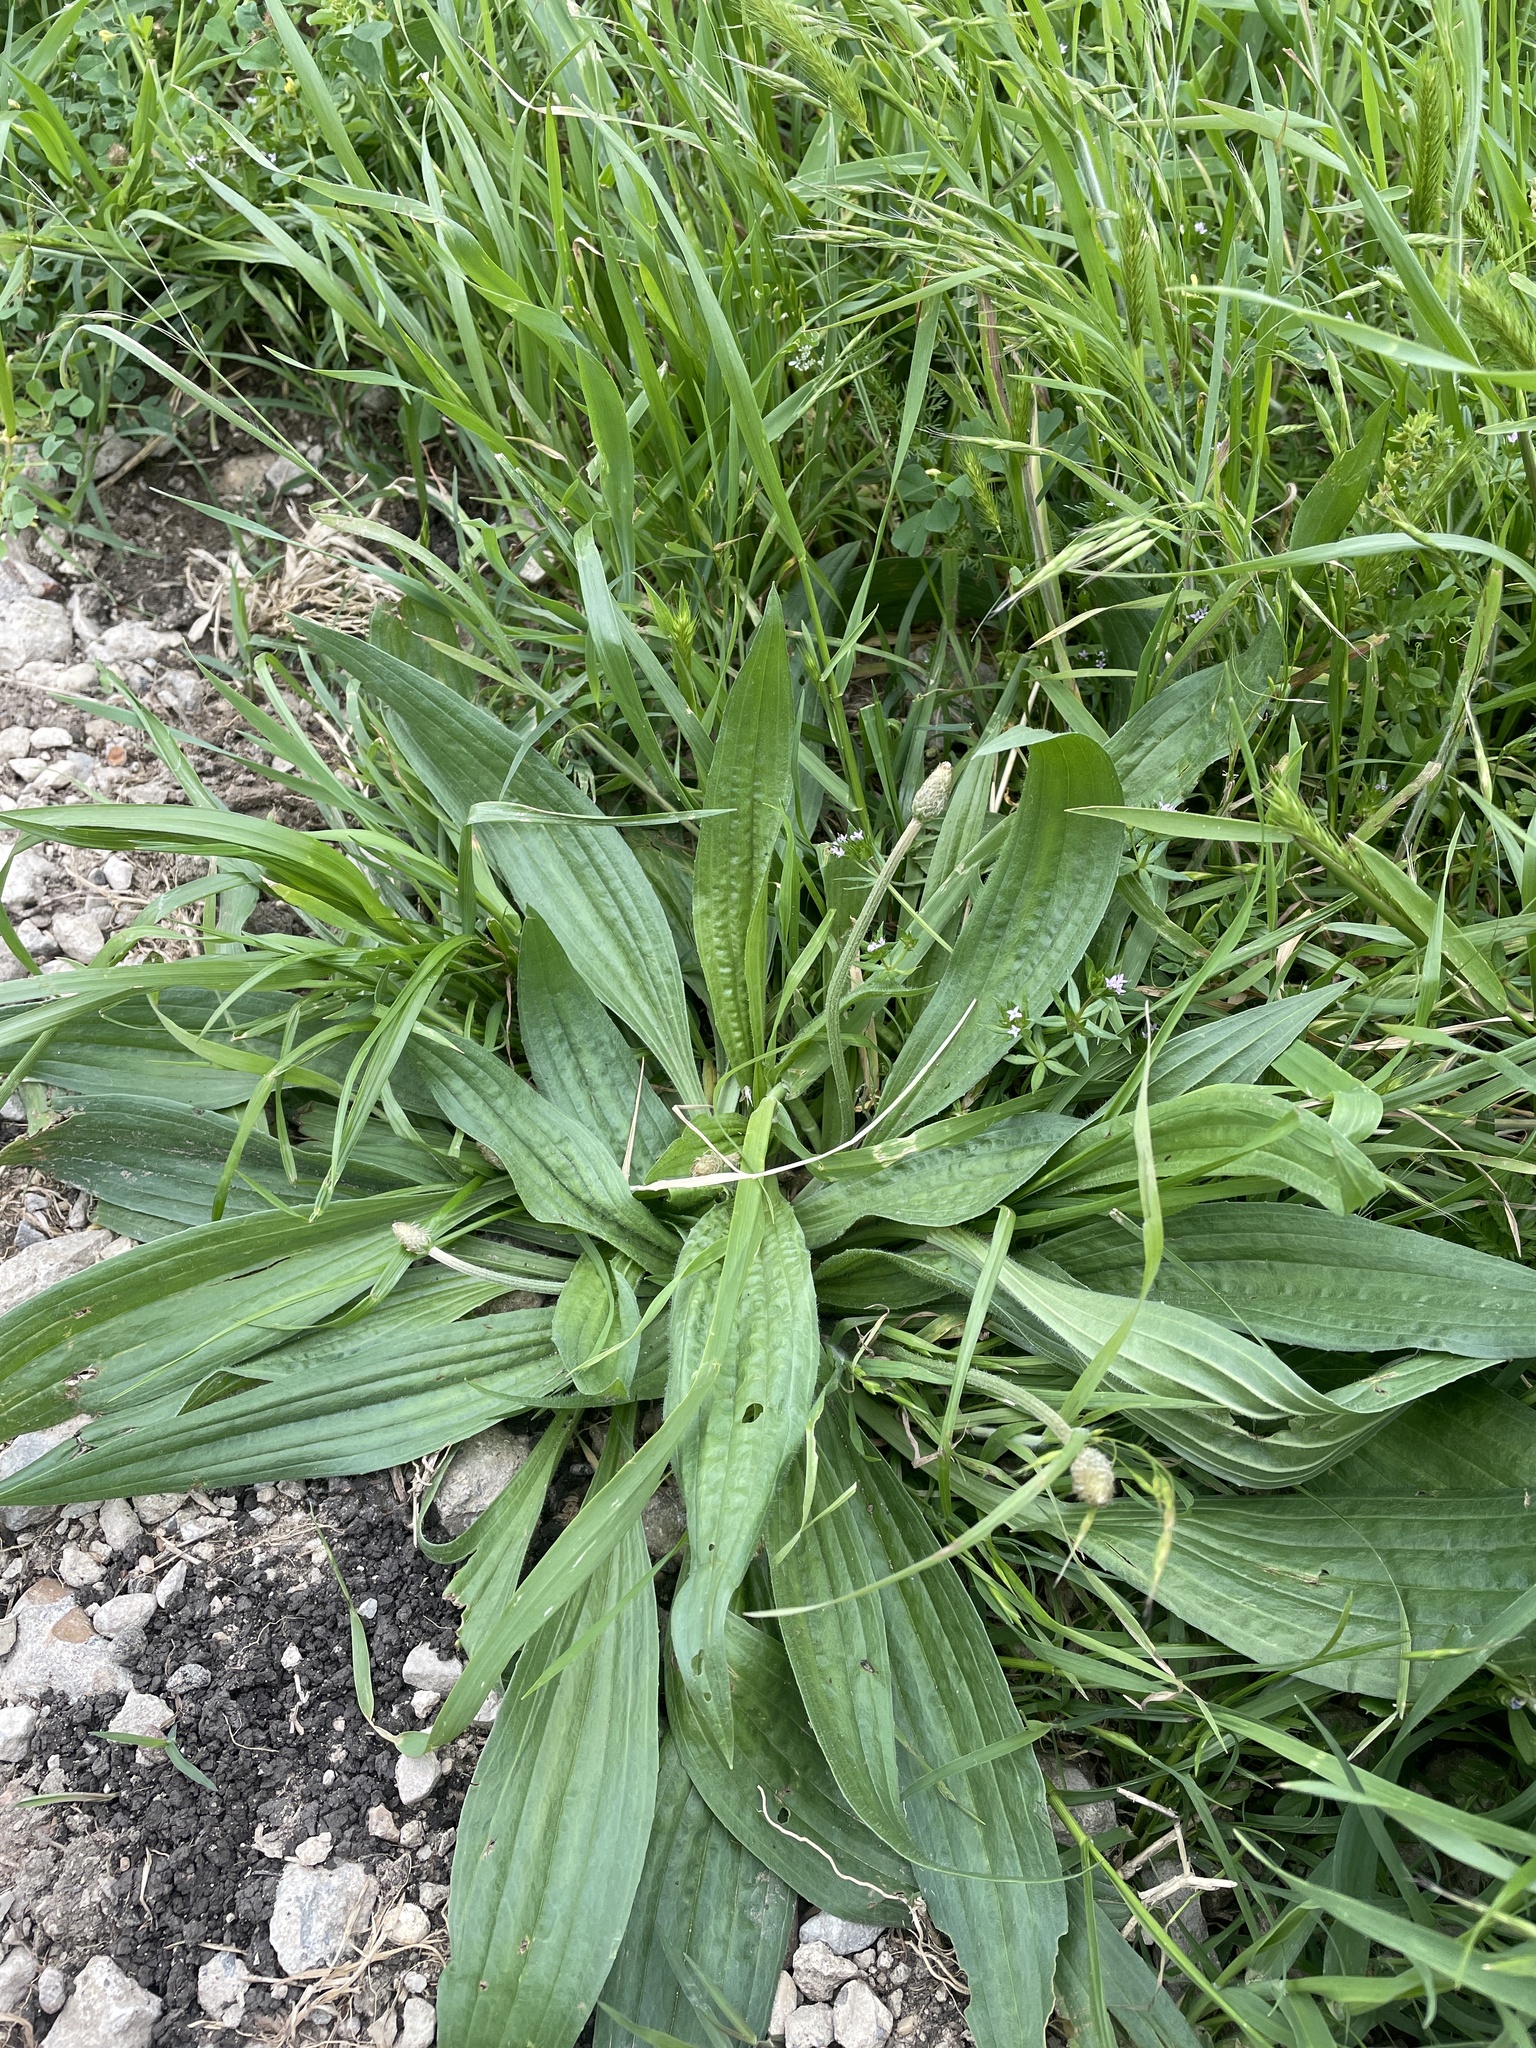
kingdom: Plantae
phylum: Tracheophyta
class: Magnoliopsida
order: Lamiales
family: Plantaginaceae
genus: Plantago
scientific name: Plantago lanceolata
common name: Ribwort plantain
